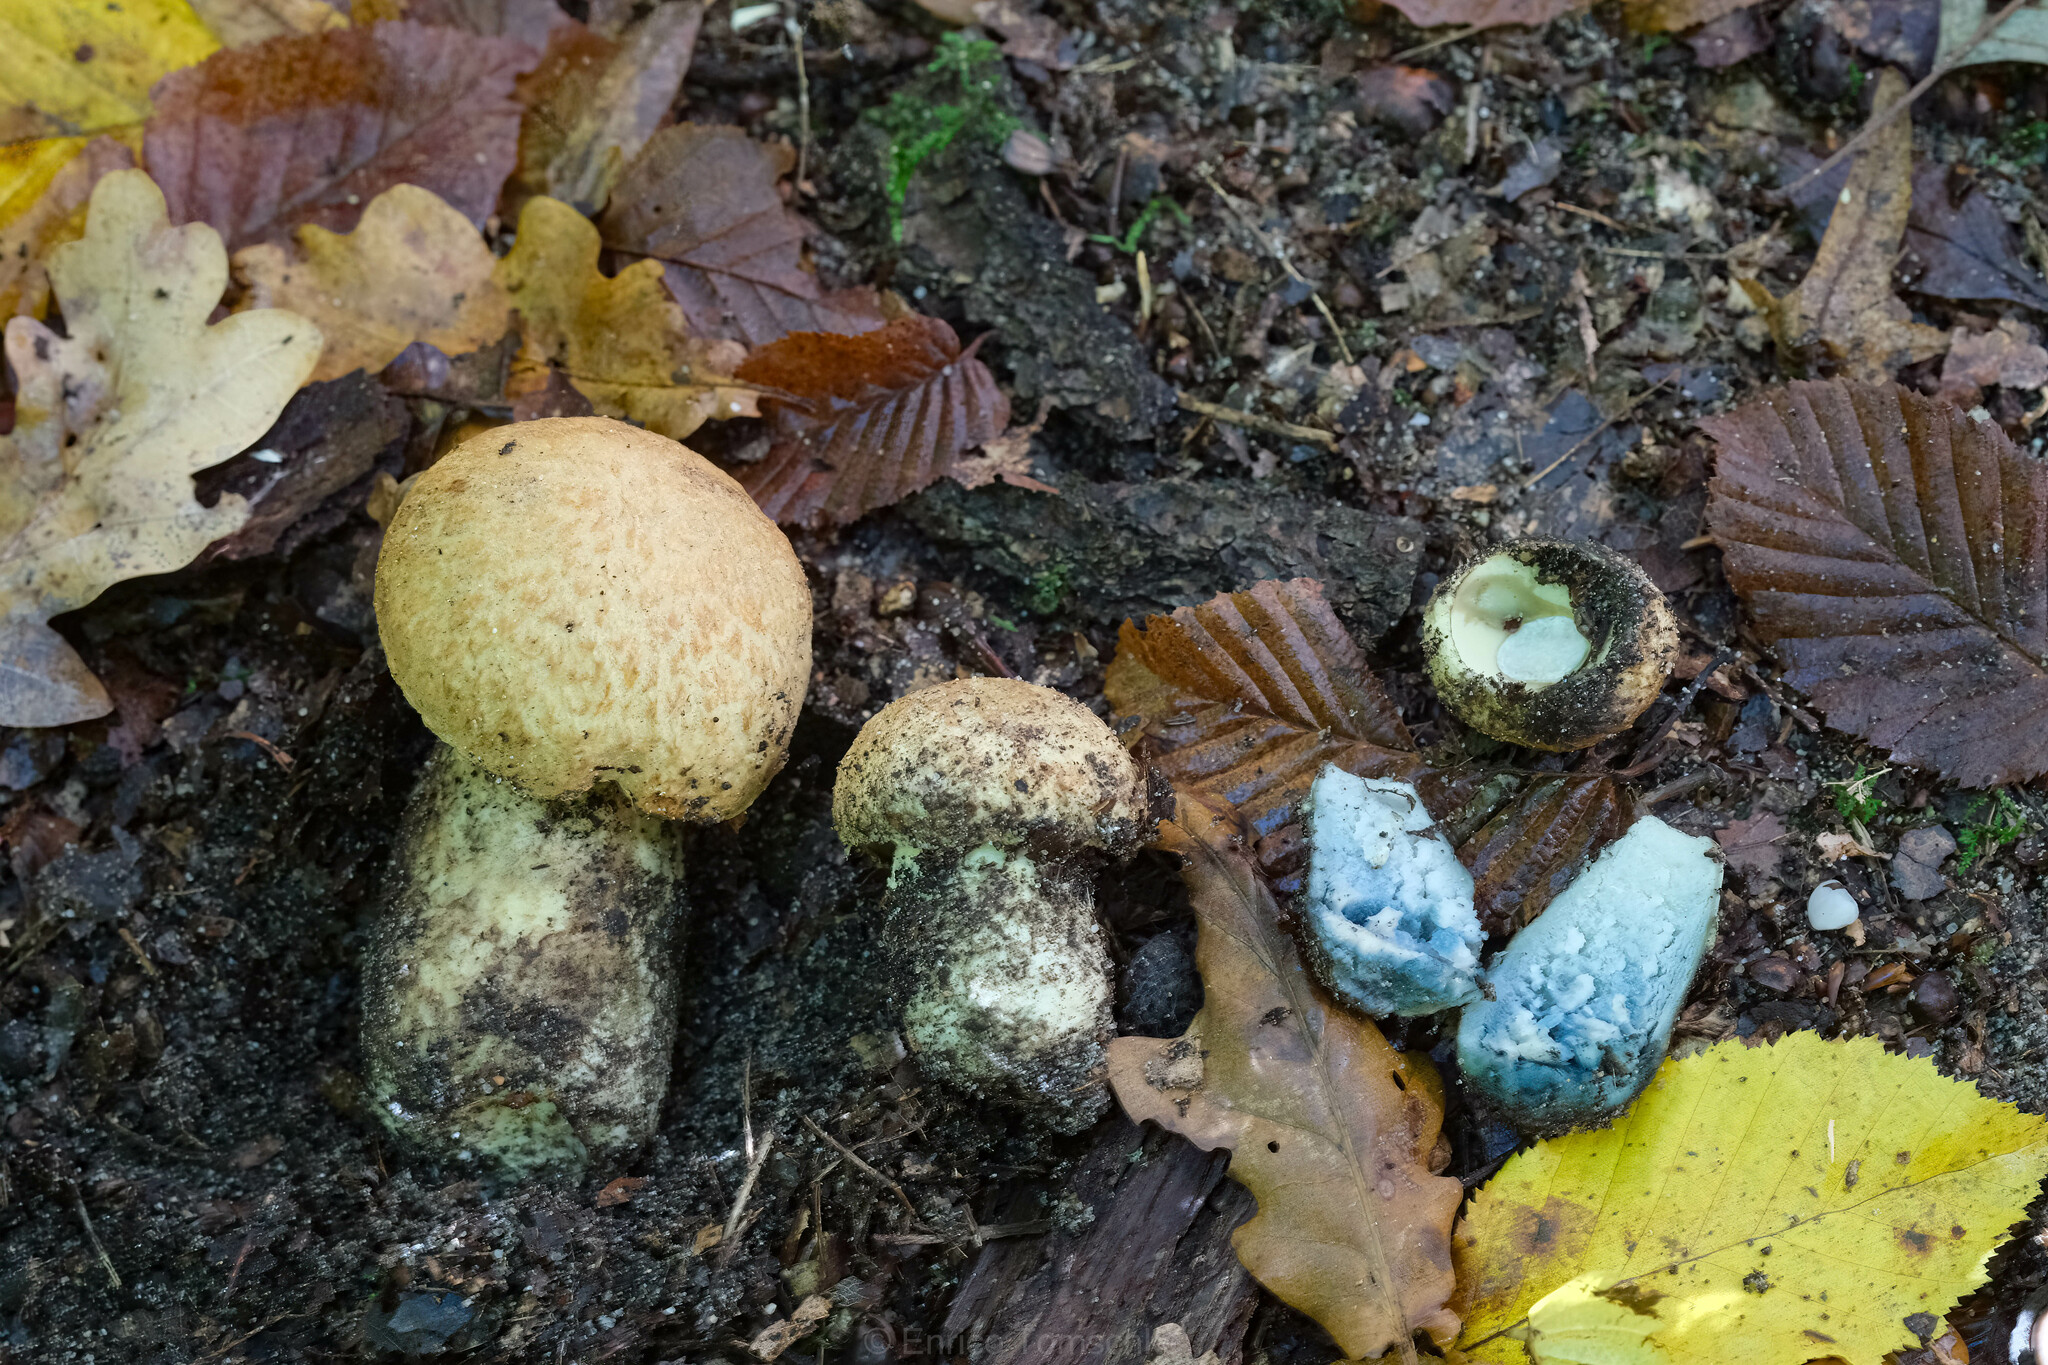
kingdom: Fungi
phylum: Basidiomycota
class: Agaricomycetes
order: Boletales
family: Gyroporaceae
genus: Gyroporus
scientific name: Gyroporus cyanescens
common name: Cornflower bolete
